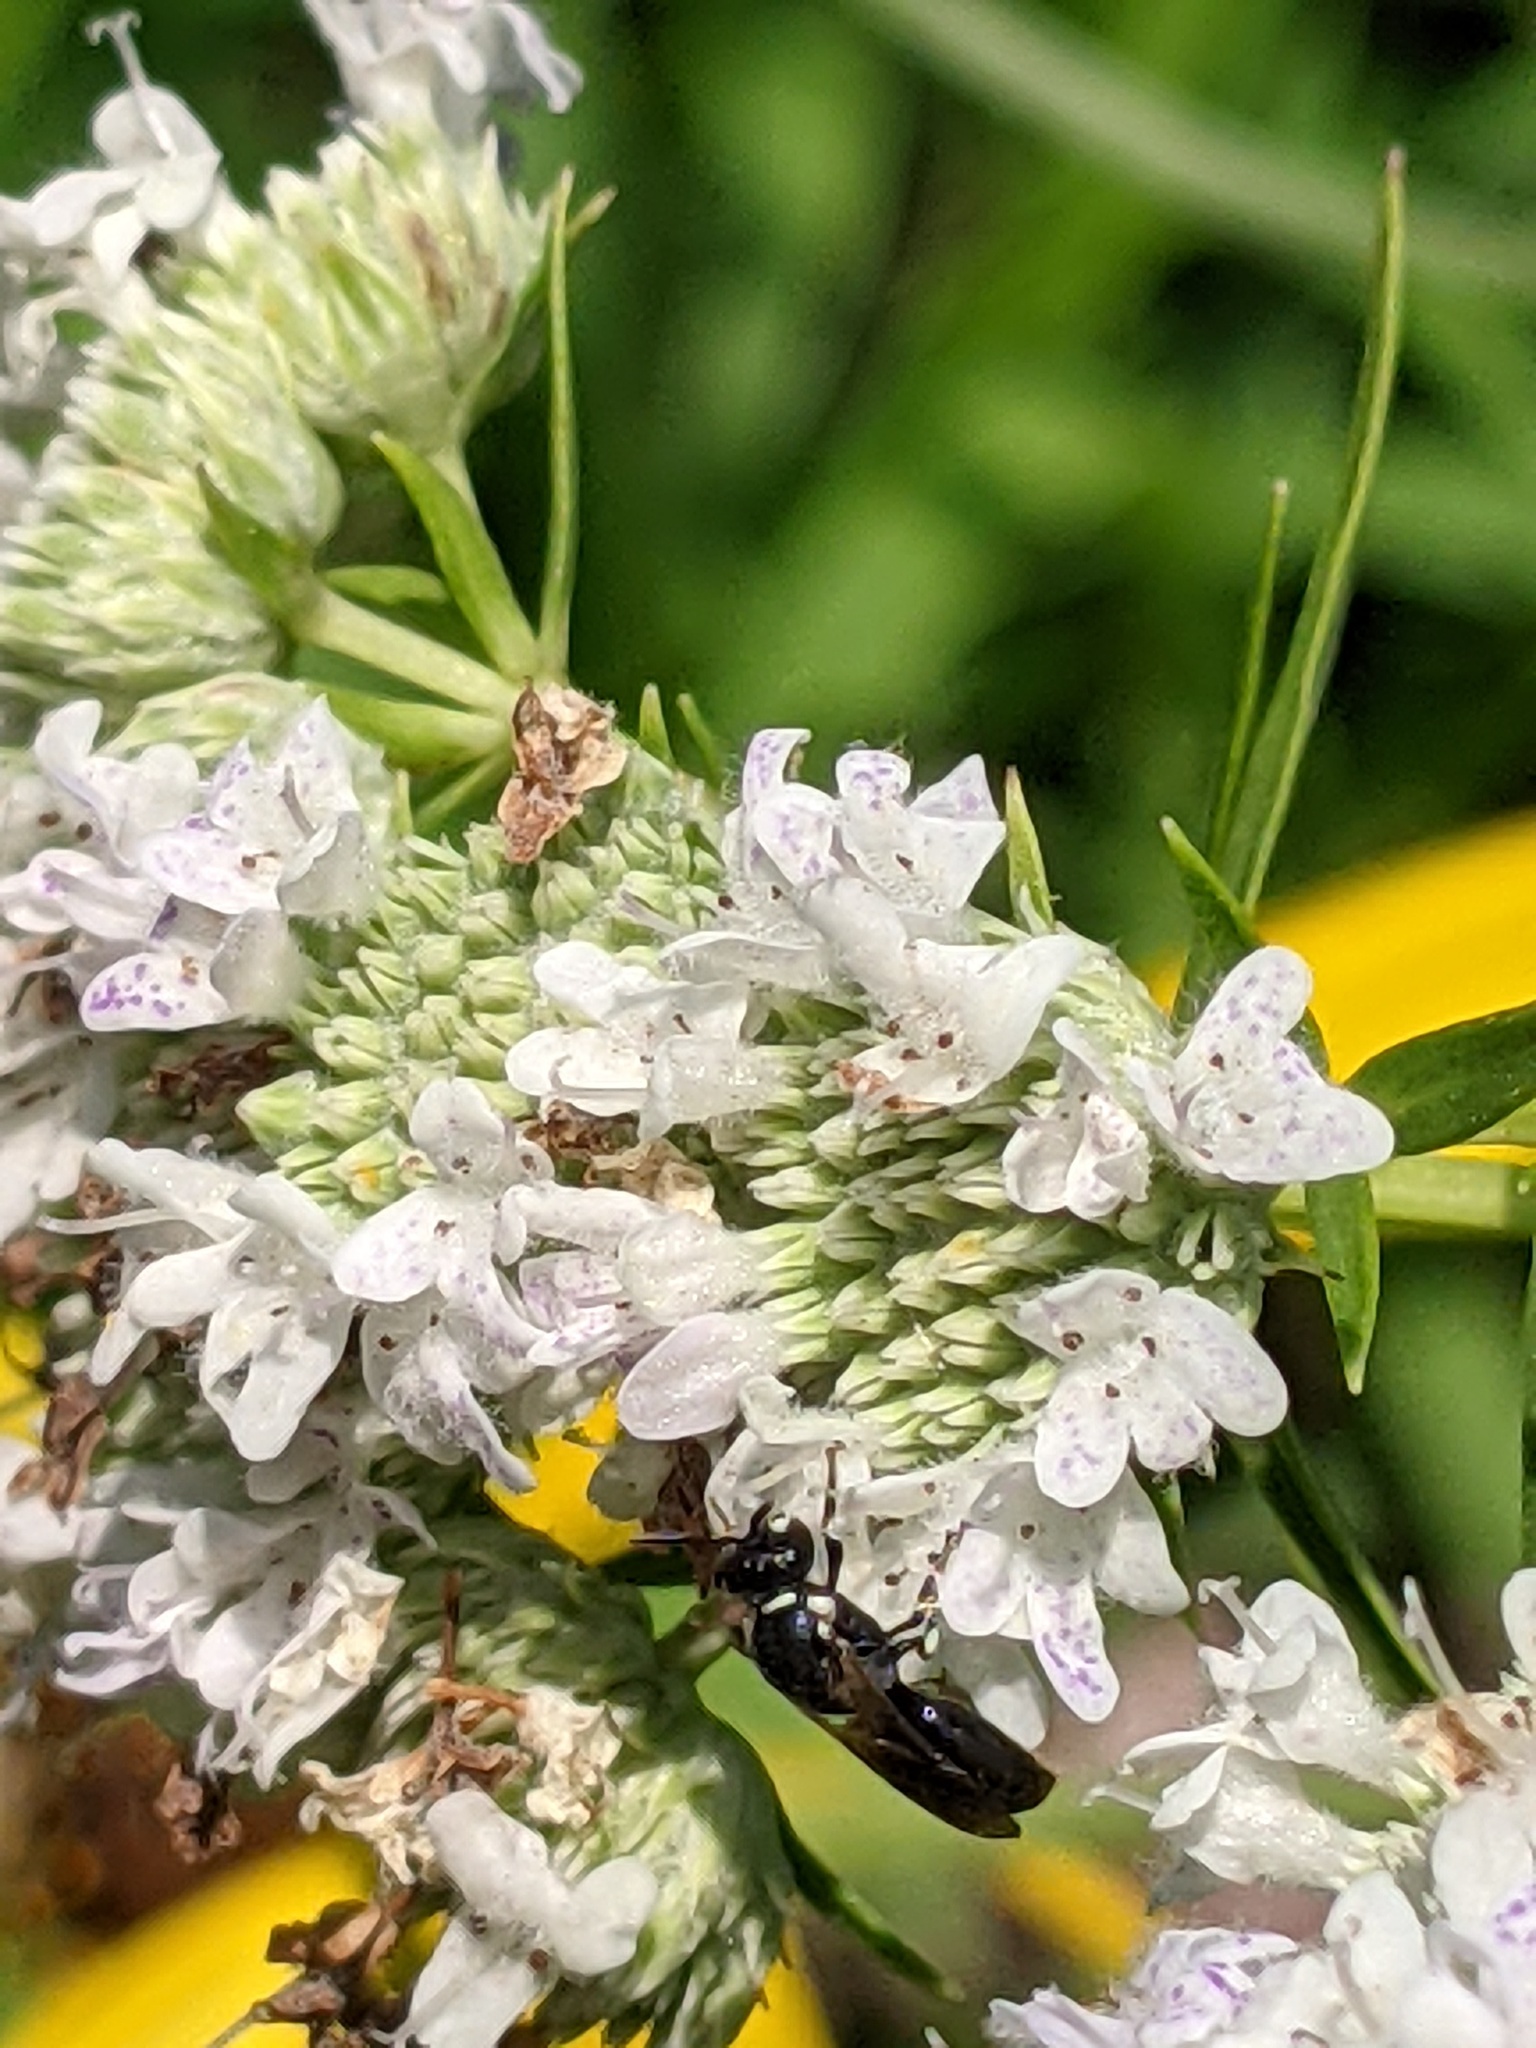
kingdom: Animalia
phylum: Arthropoda
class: Insecta
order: Hymenoptera
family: Colletidae
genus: Hylaeus
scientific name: Hylaeus leptocephalus
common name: Slender-faced masked bee
